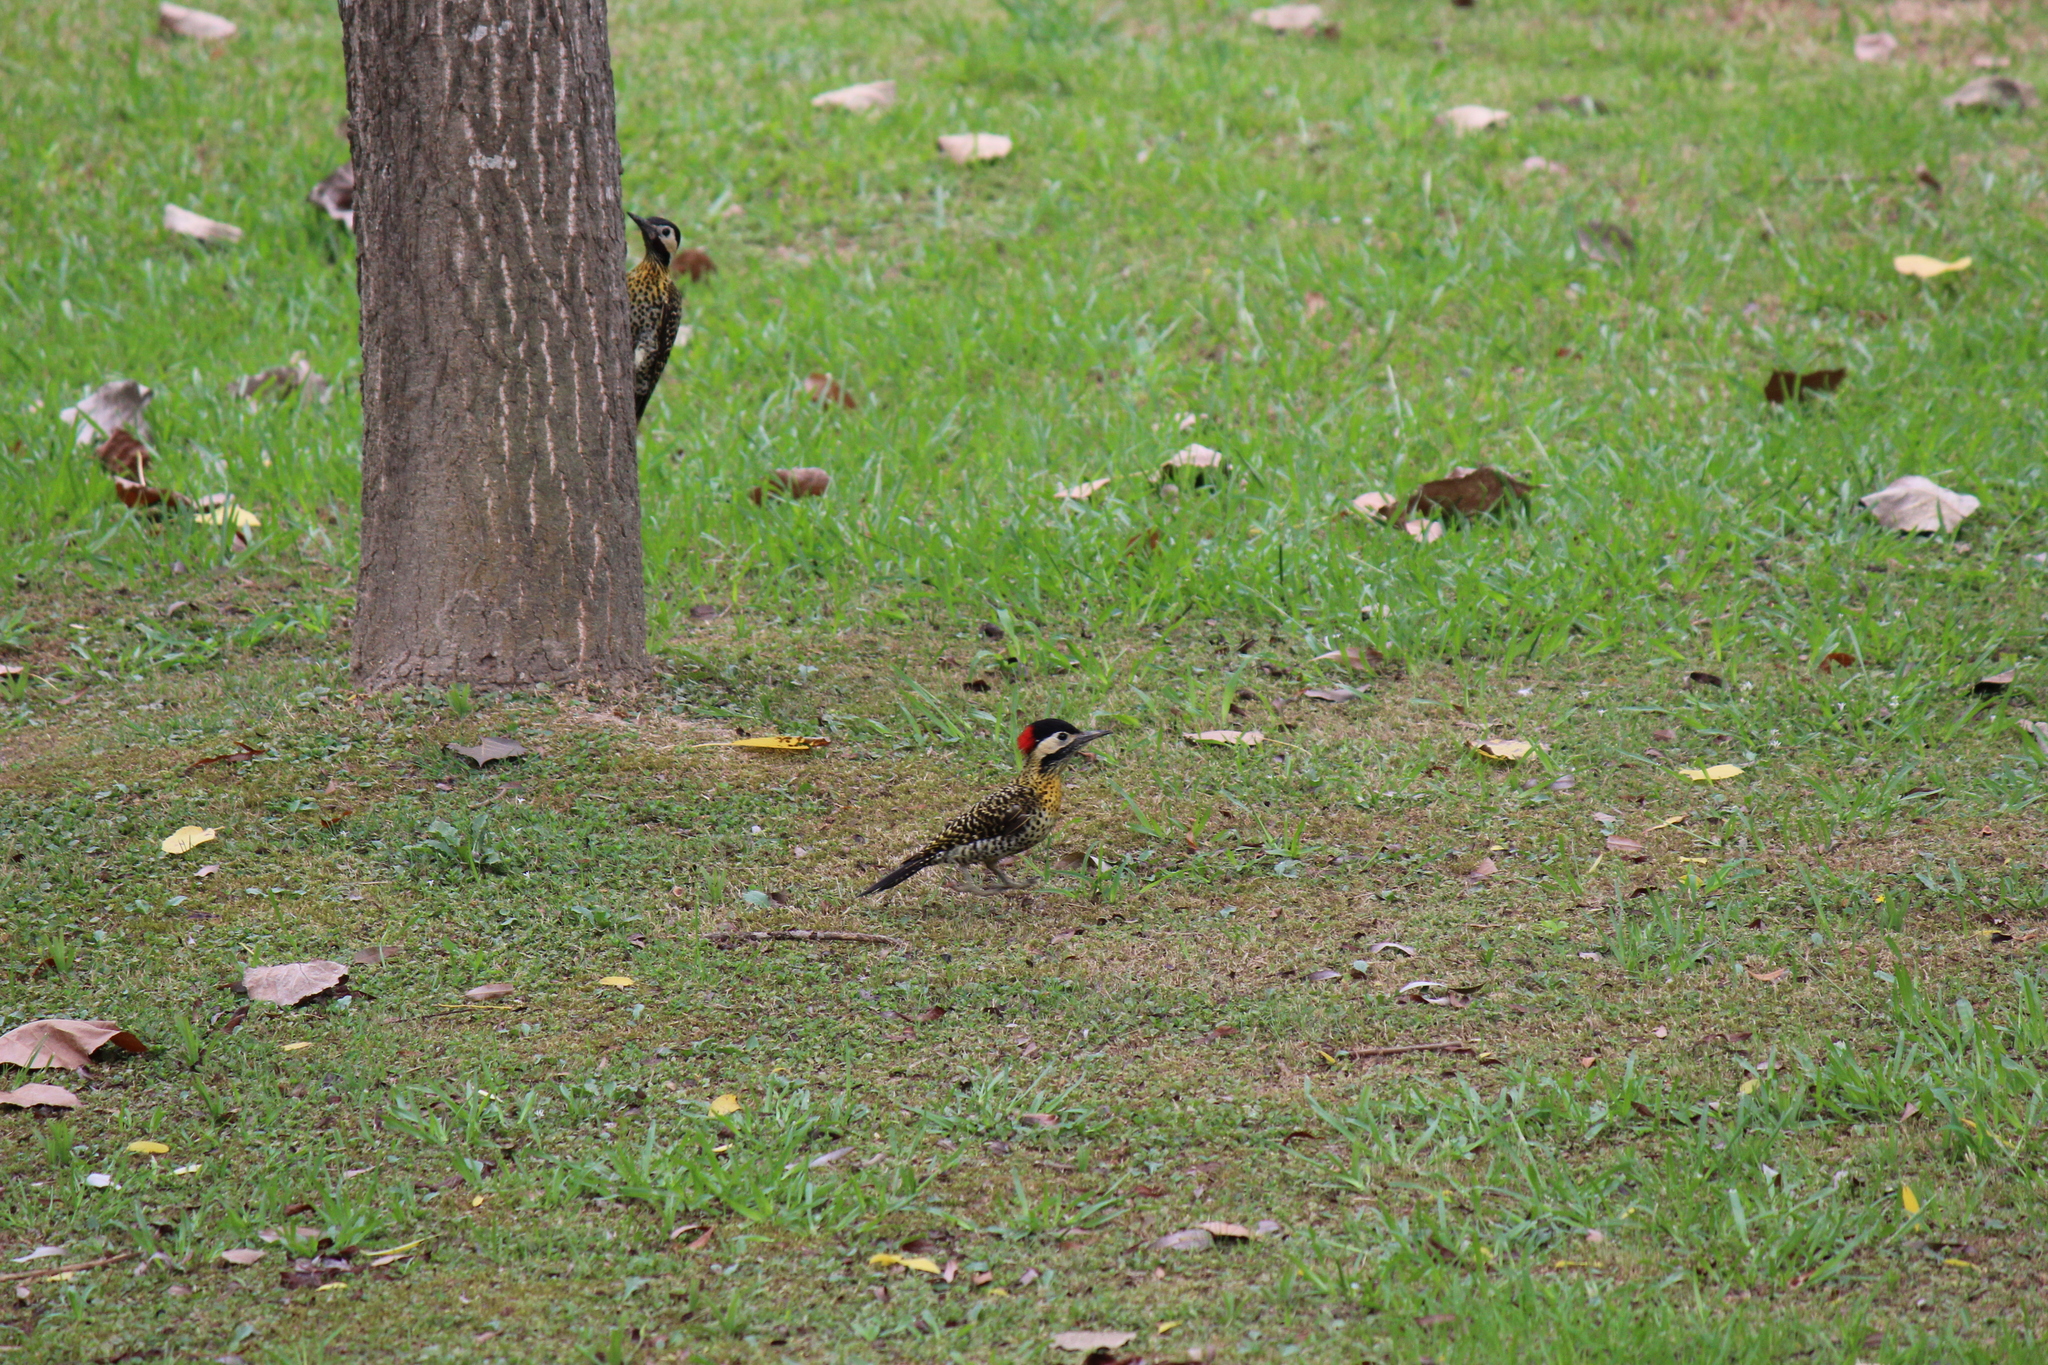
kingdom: Animalia
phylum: Chordata
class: Aves
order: Piciformes
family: Picidae
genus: Colaptes
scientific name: Colaptes melanochloros
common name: Green-barred woodpecker
